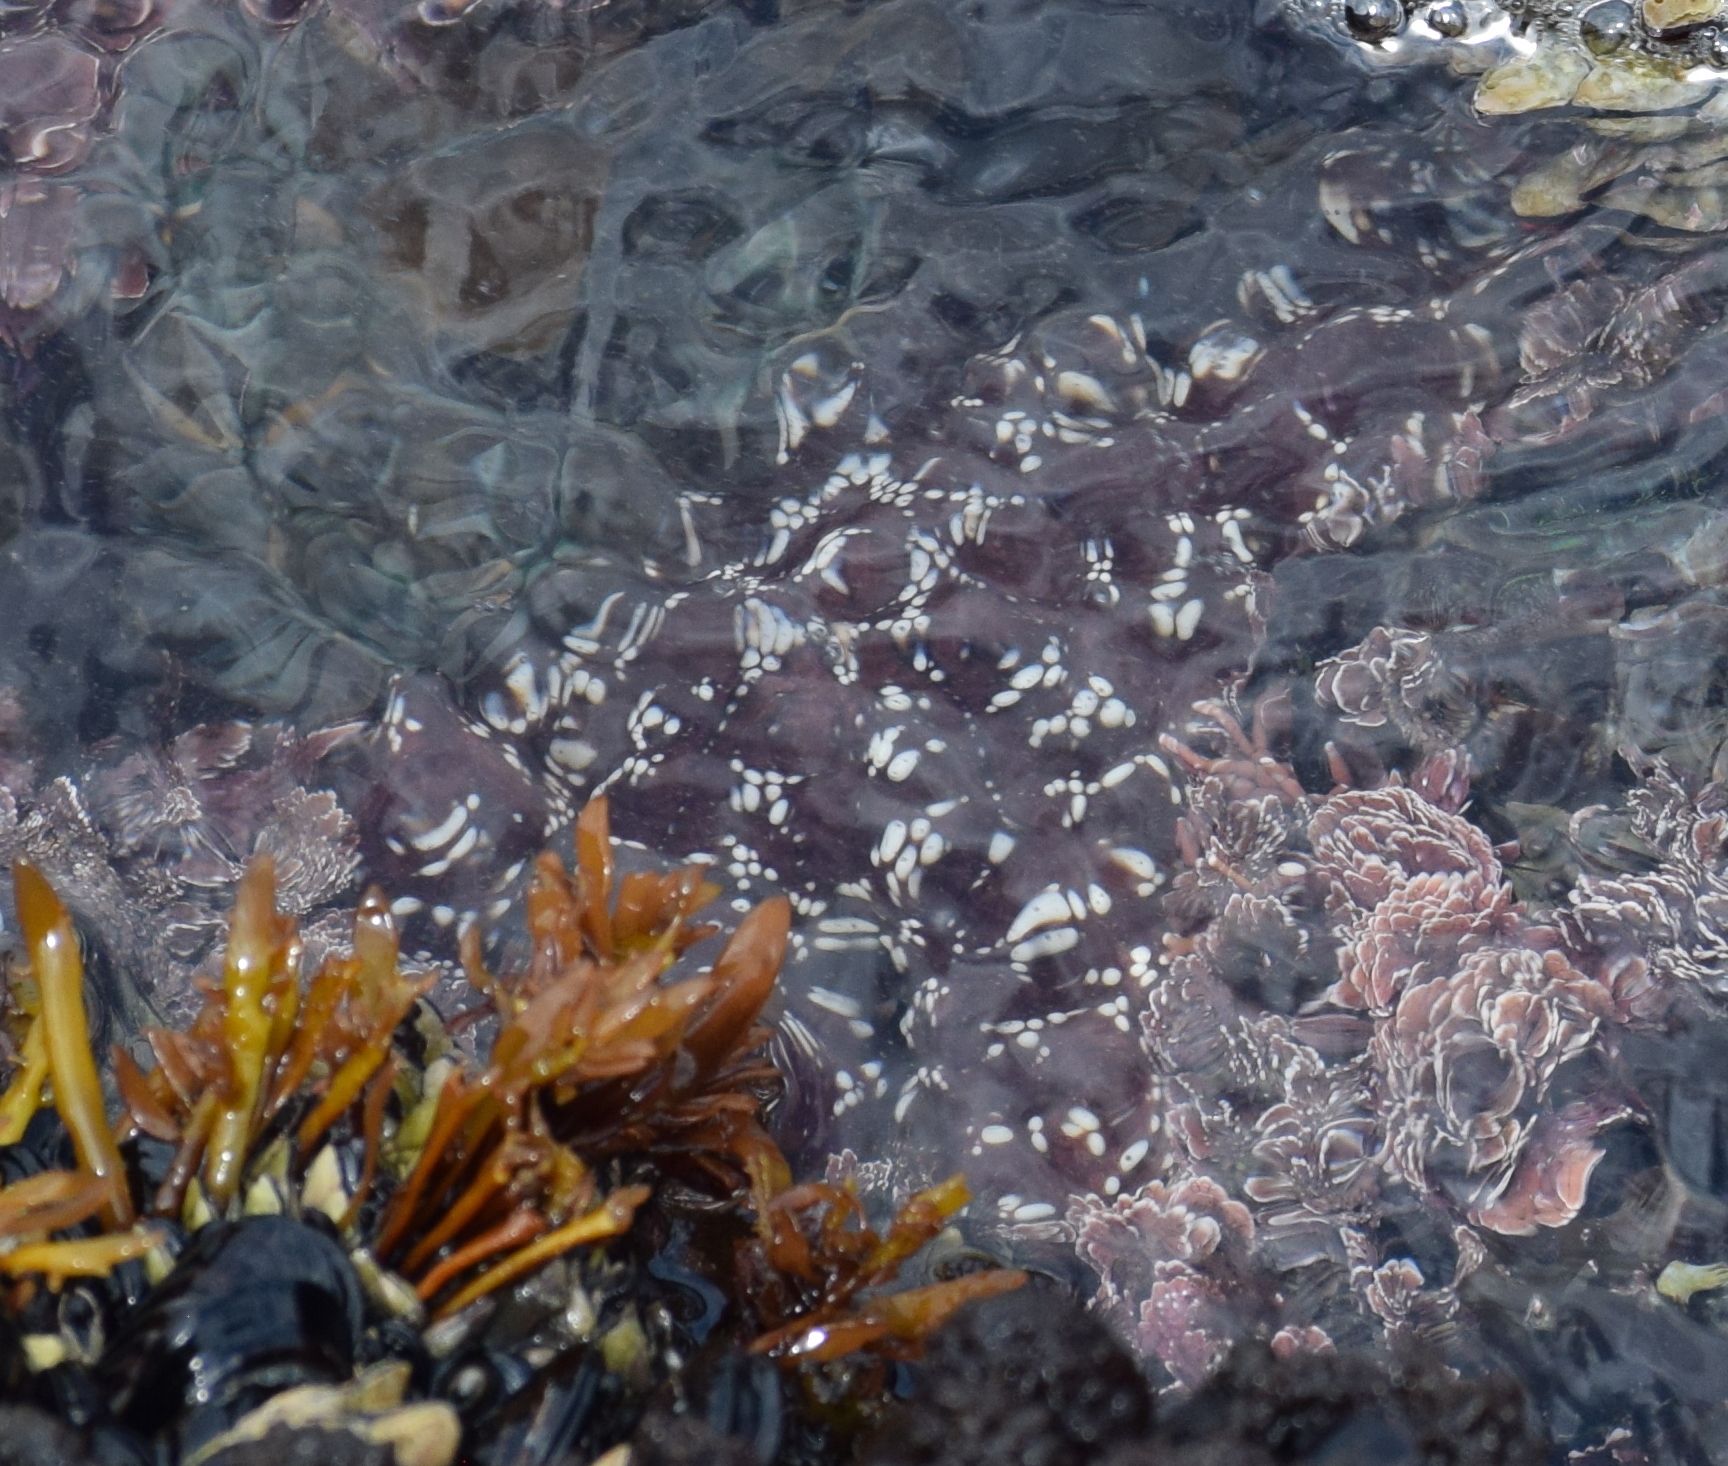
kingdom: Animalia
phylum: Echinodermata
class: Asteroidea
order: Forcipulatida
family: Asteriidae
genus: Pisaster
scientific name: Pisaster ochraceus
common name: Ochre stars
